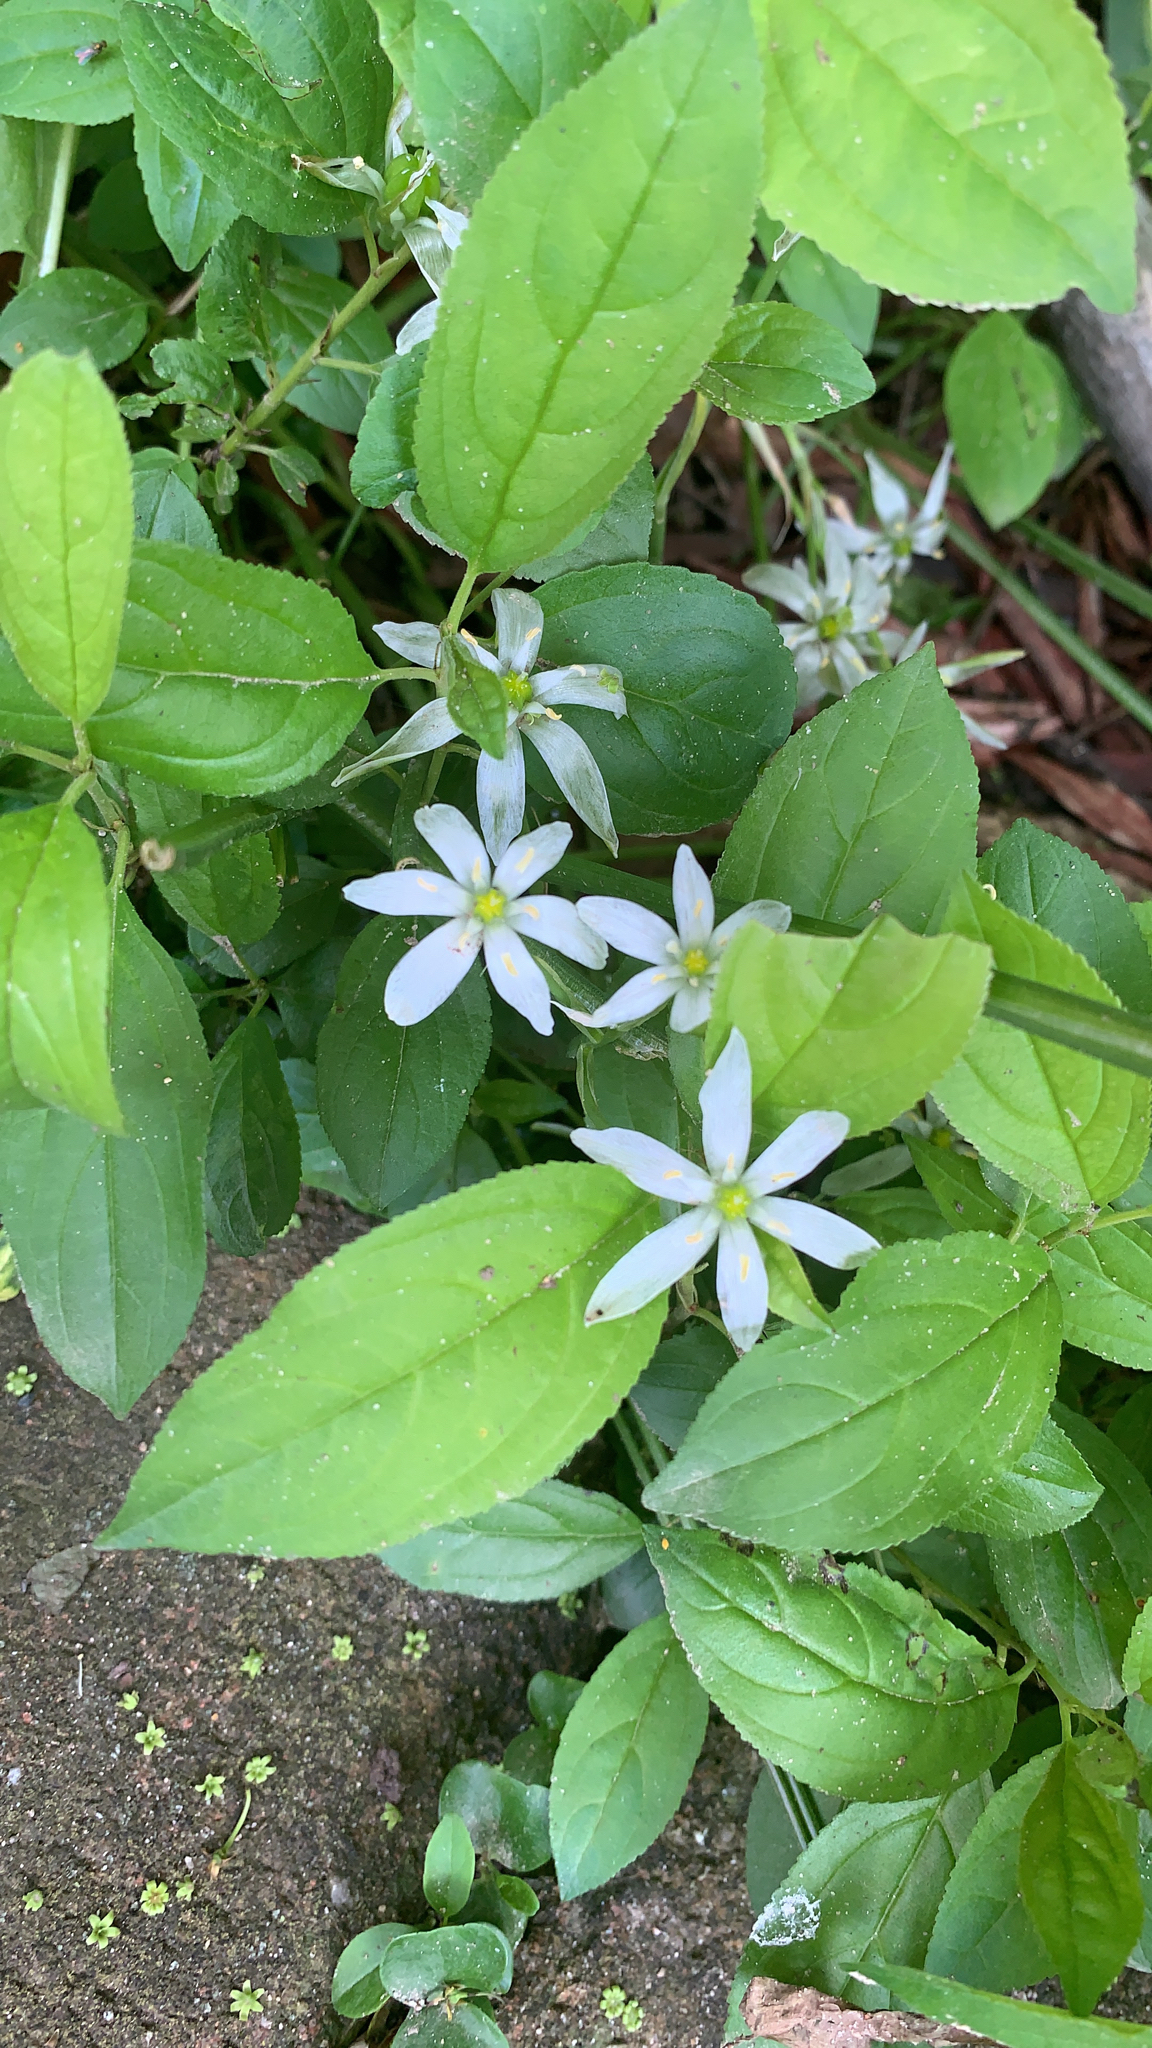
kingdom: Plantae
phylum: Tracheophyta
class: Liliopsida
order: Asparagales
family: Asparagaceae
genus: Ornithogalum
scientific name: Ornithogalum umbellatum
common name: Garden star-of-bethlehem
